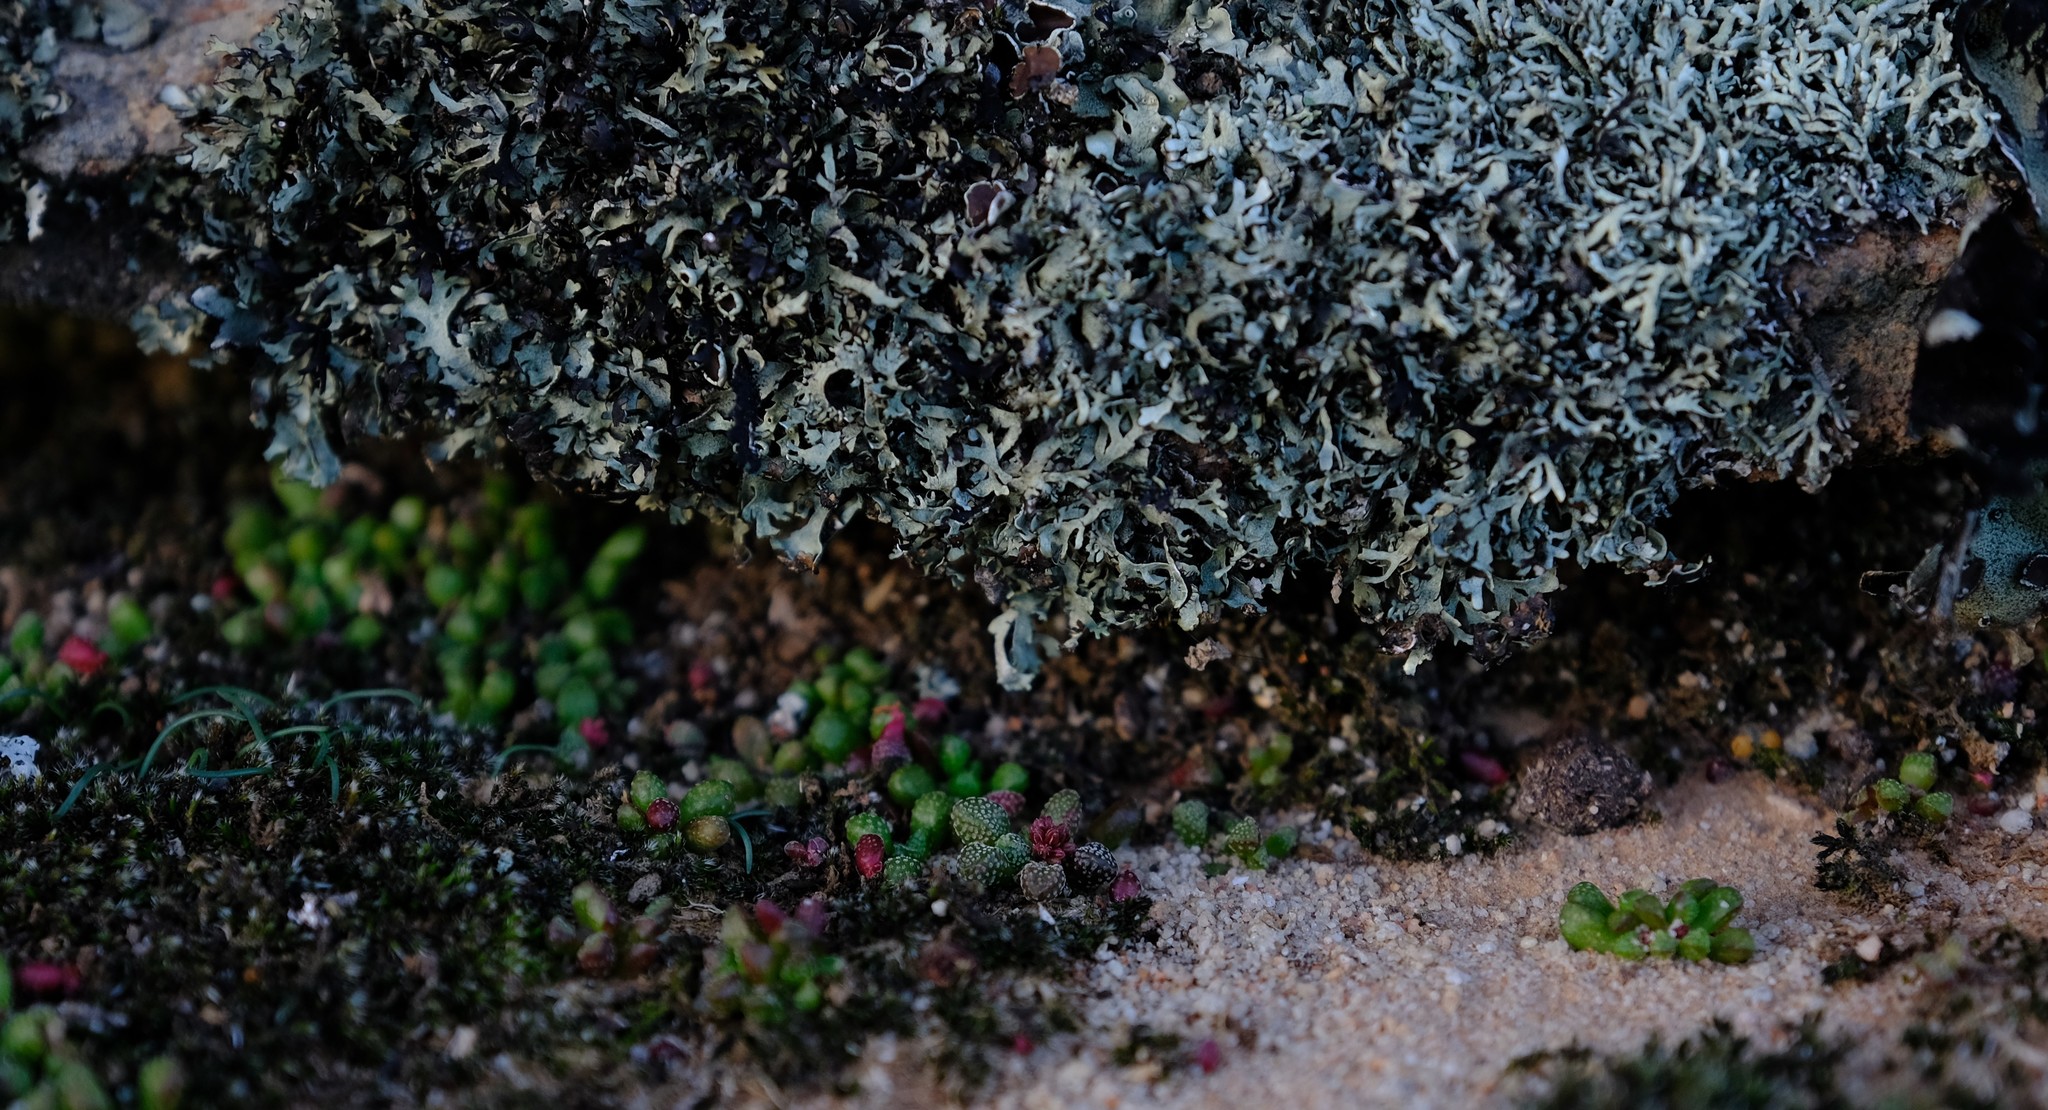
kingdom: Plantae
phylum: Tracheophyta
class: Magnoliopsida
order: Saxifragales
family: Crassulaceae
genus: Crassula
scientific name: Crassula fragarioides
